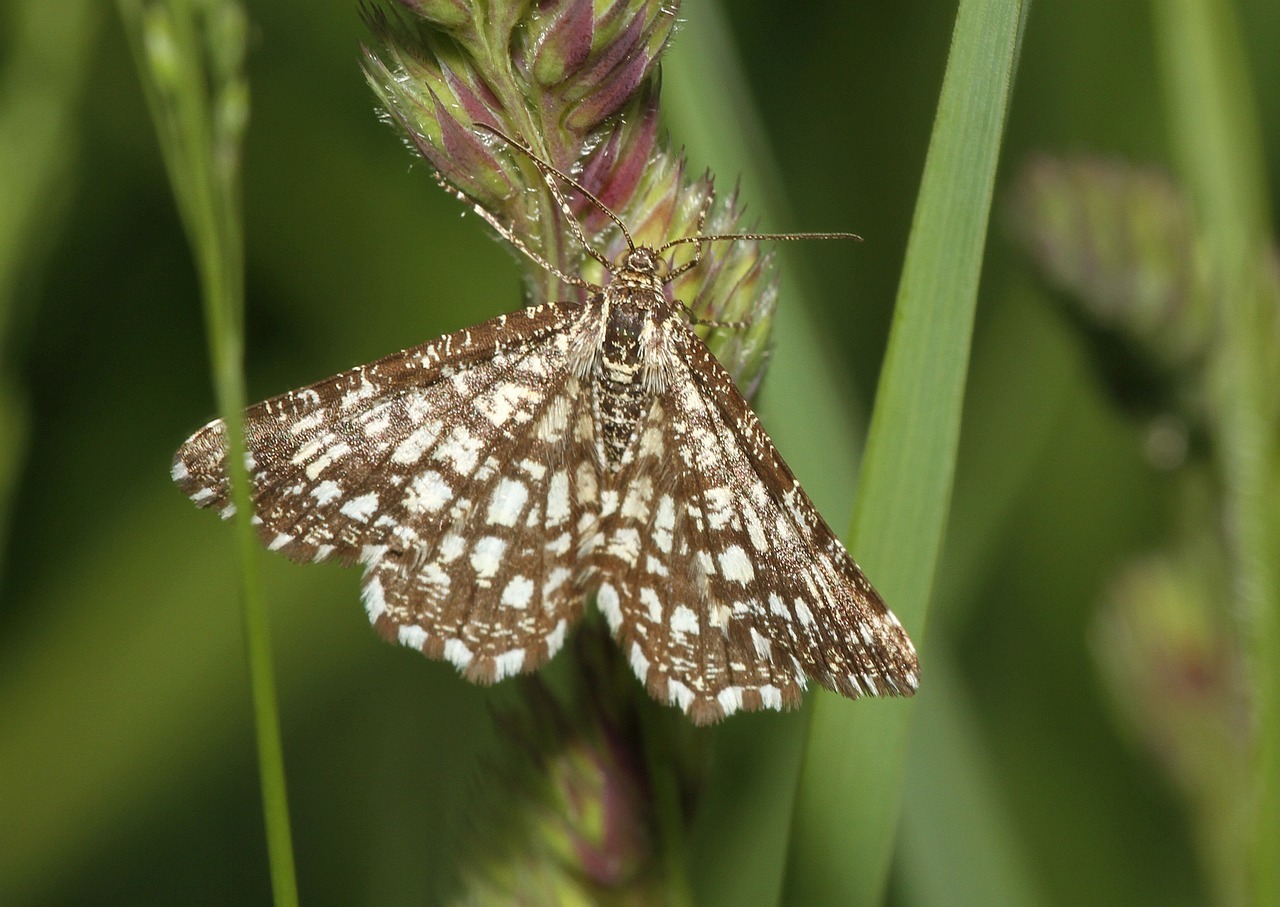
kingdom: Animalia
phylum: Arthropoda
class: Insecta
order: Lepidoptera
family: Geometridae
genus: Chiasmia
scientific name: Chiasmia clathrata
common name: Latticed heath
